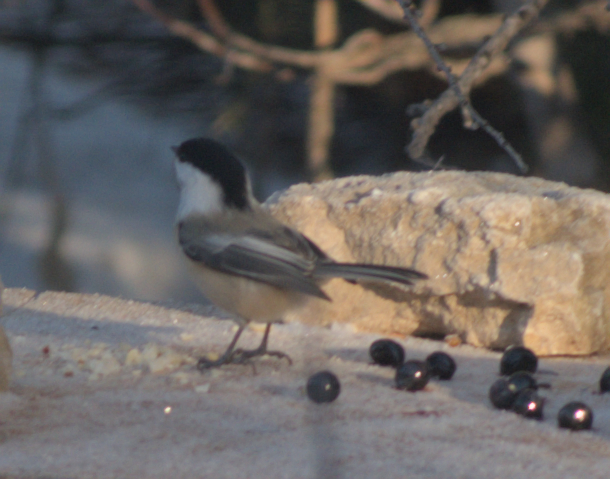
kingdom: Animalia
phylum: Chordata
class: Aves
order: Passeriformes
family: Paridae
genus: Poecile
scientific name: Poecile atricapillus
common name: Black-capped chickadee
